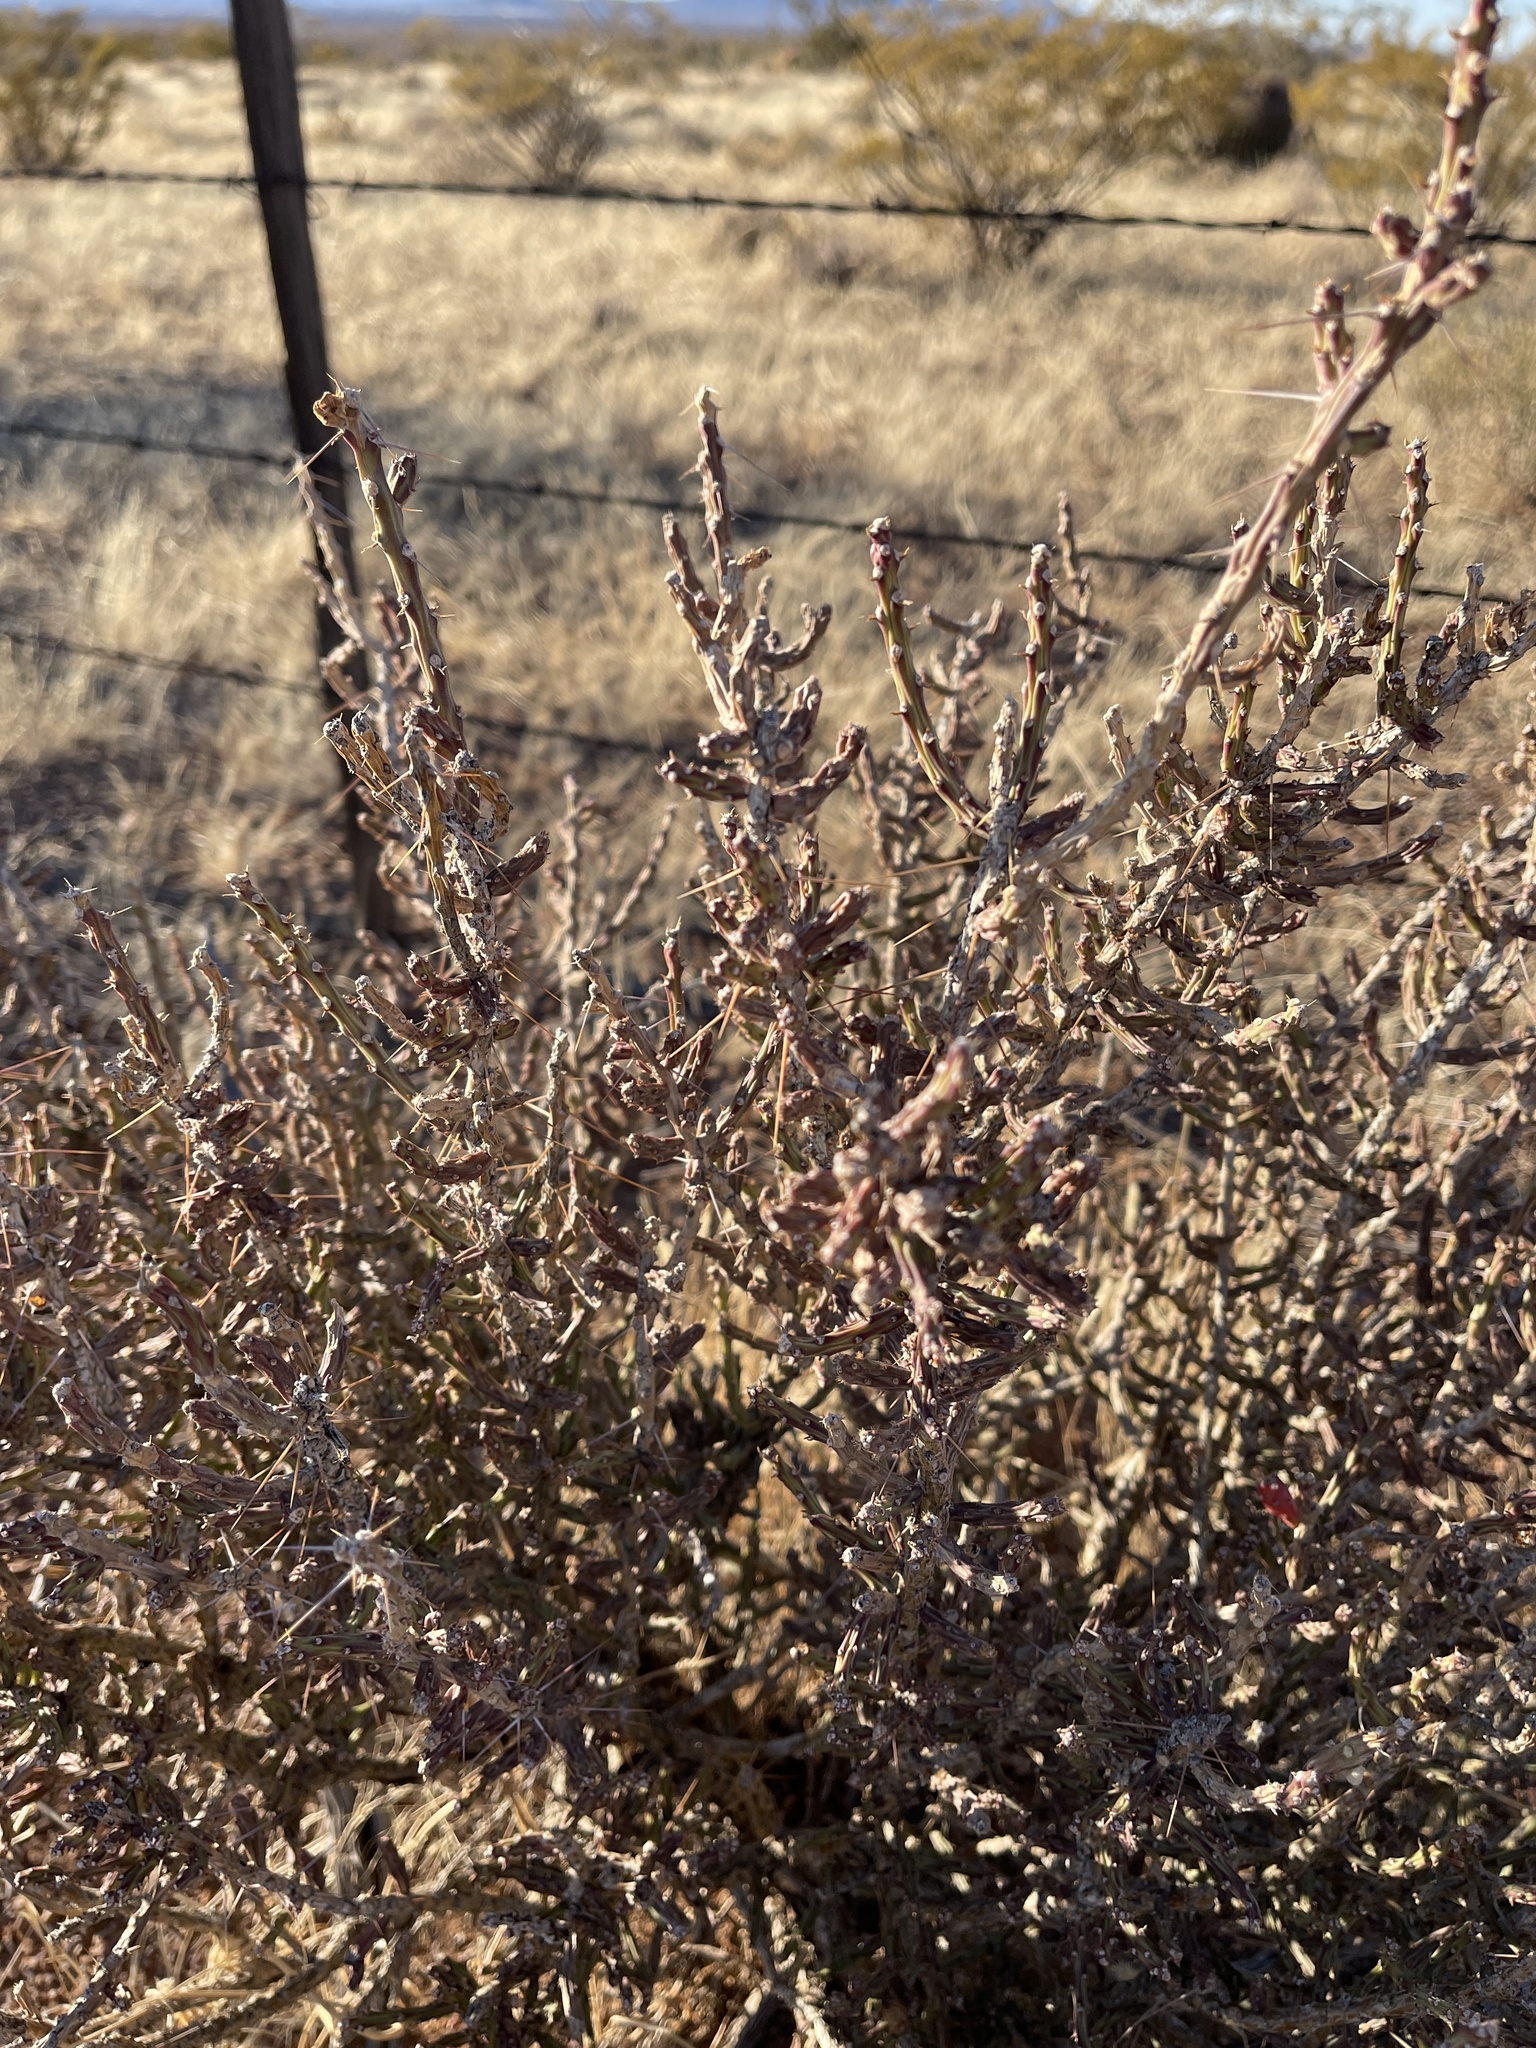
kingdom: Plantae
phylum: Tracheophyta
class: Magnoliopsida
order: Caryophyllales
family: Cactaceae
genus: Cylindropuntia
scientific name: Cylindropuntia leptocaulis
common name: Christmas cactus
